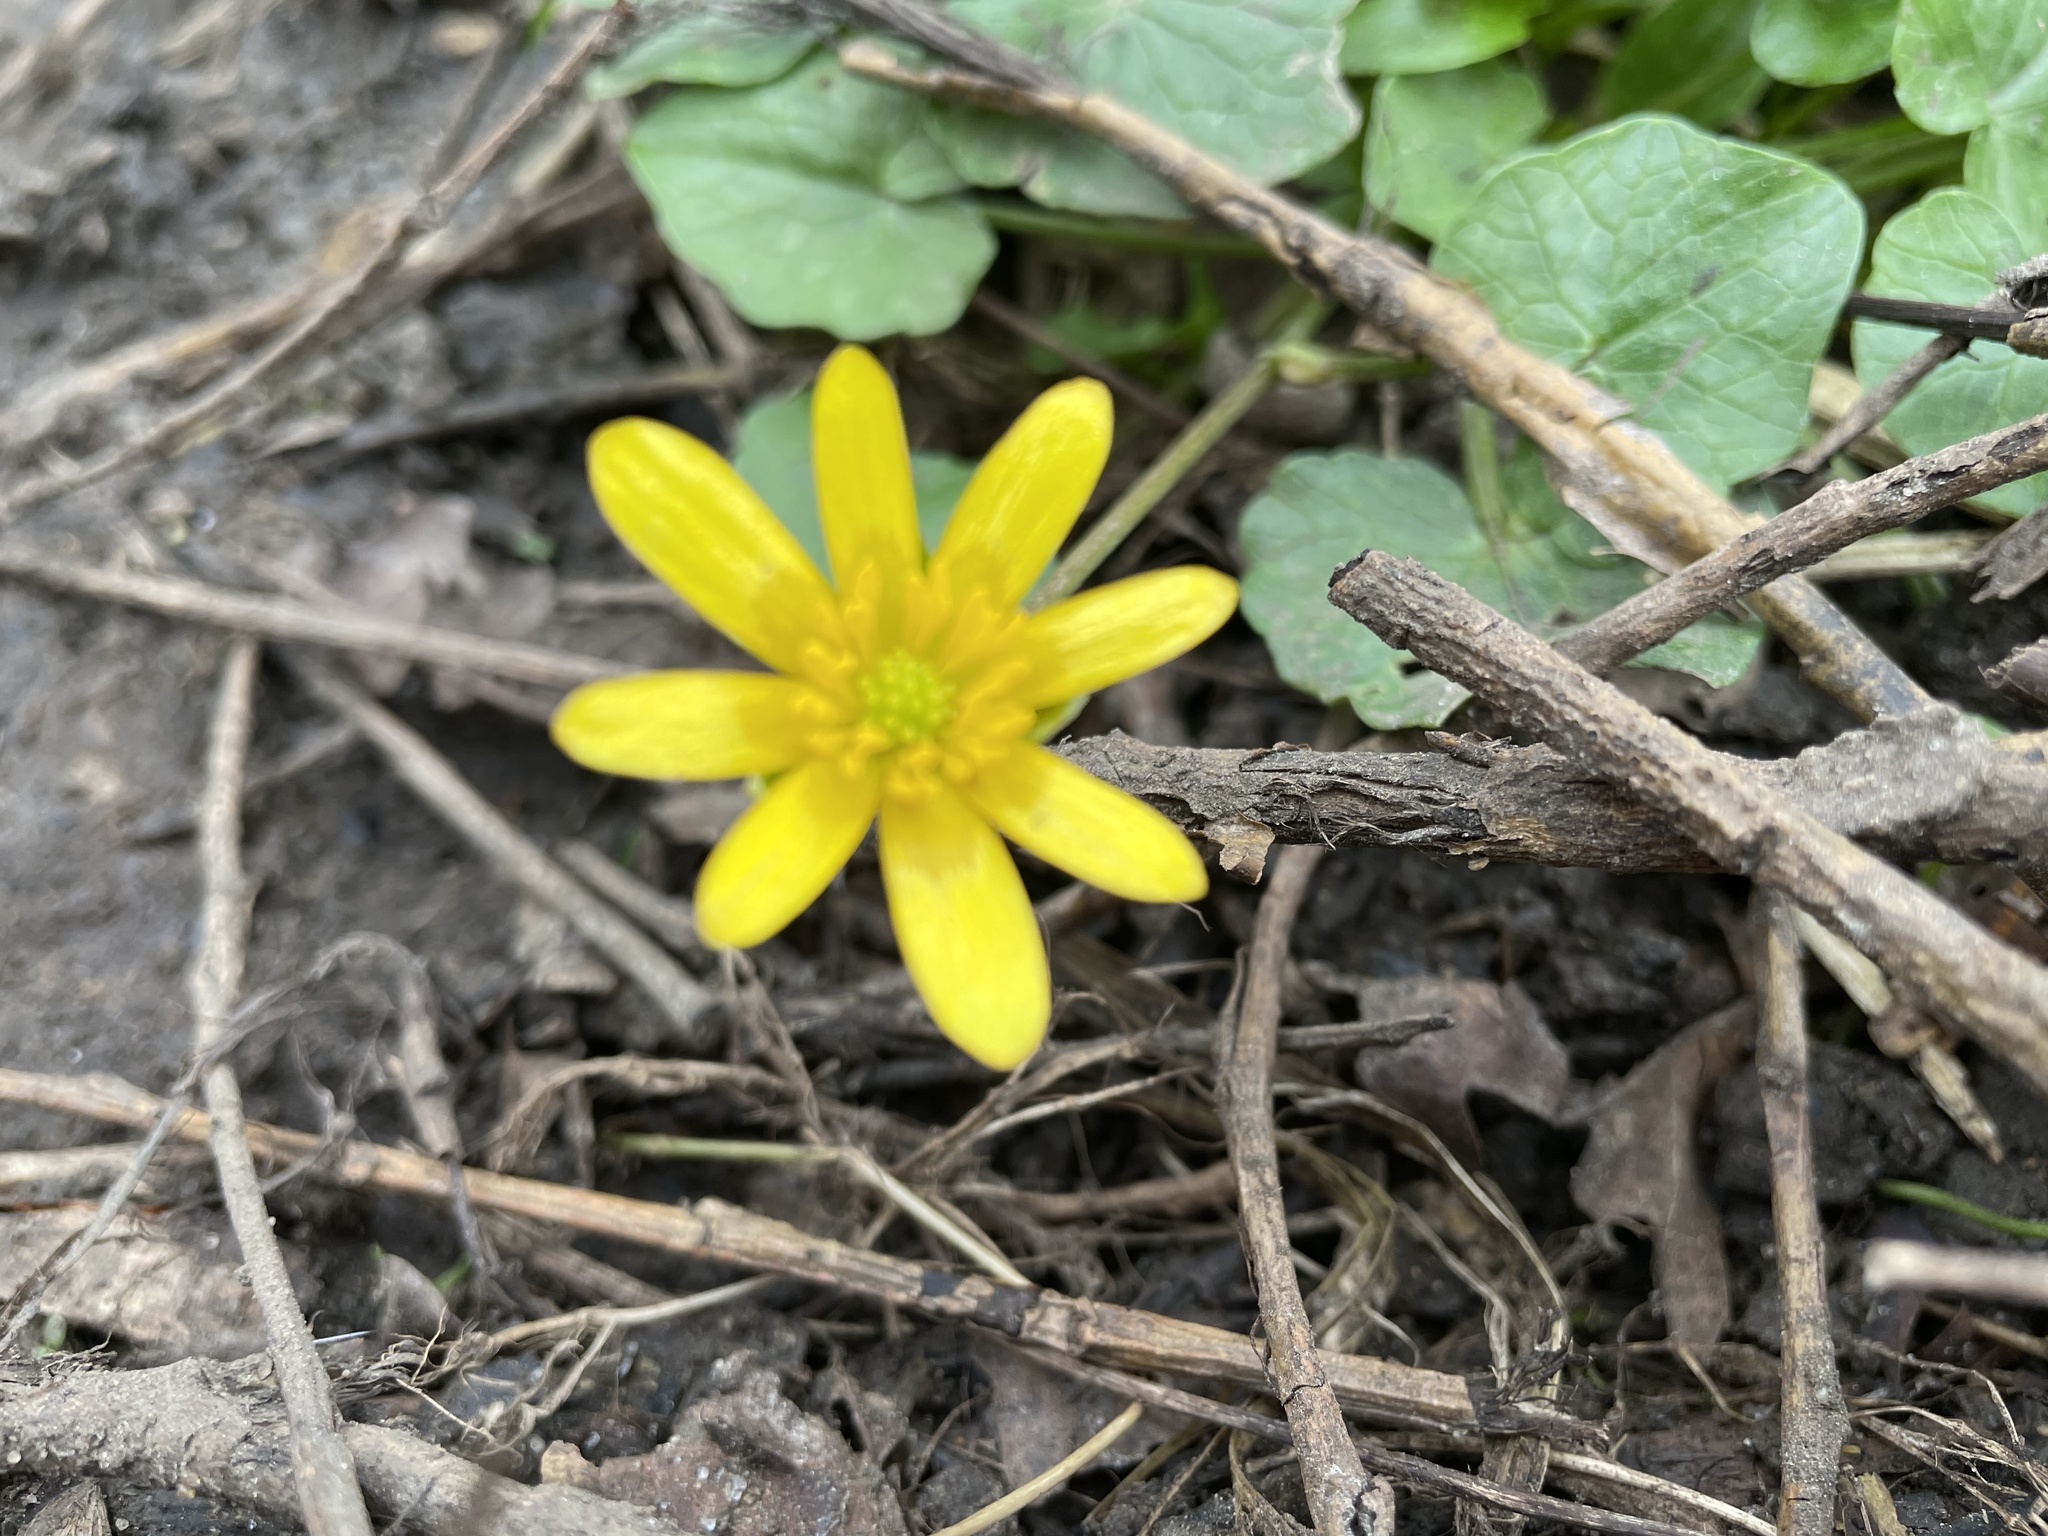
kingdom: Plantae
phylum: Tracheophyta
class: Magnoliopsida
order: Ranunculales
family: Ranunculaceae
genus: Ficaria
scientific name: Ficaria verna
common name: Lesser celandine
